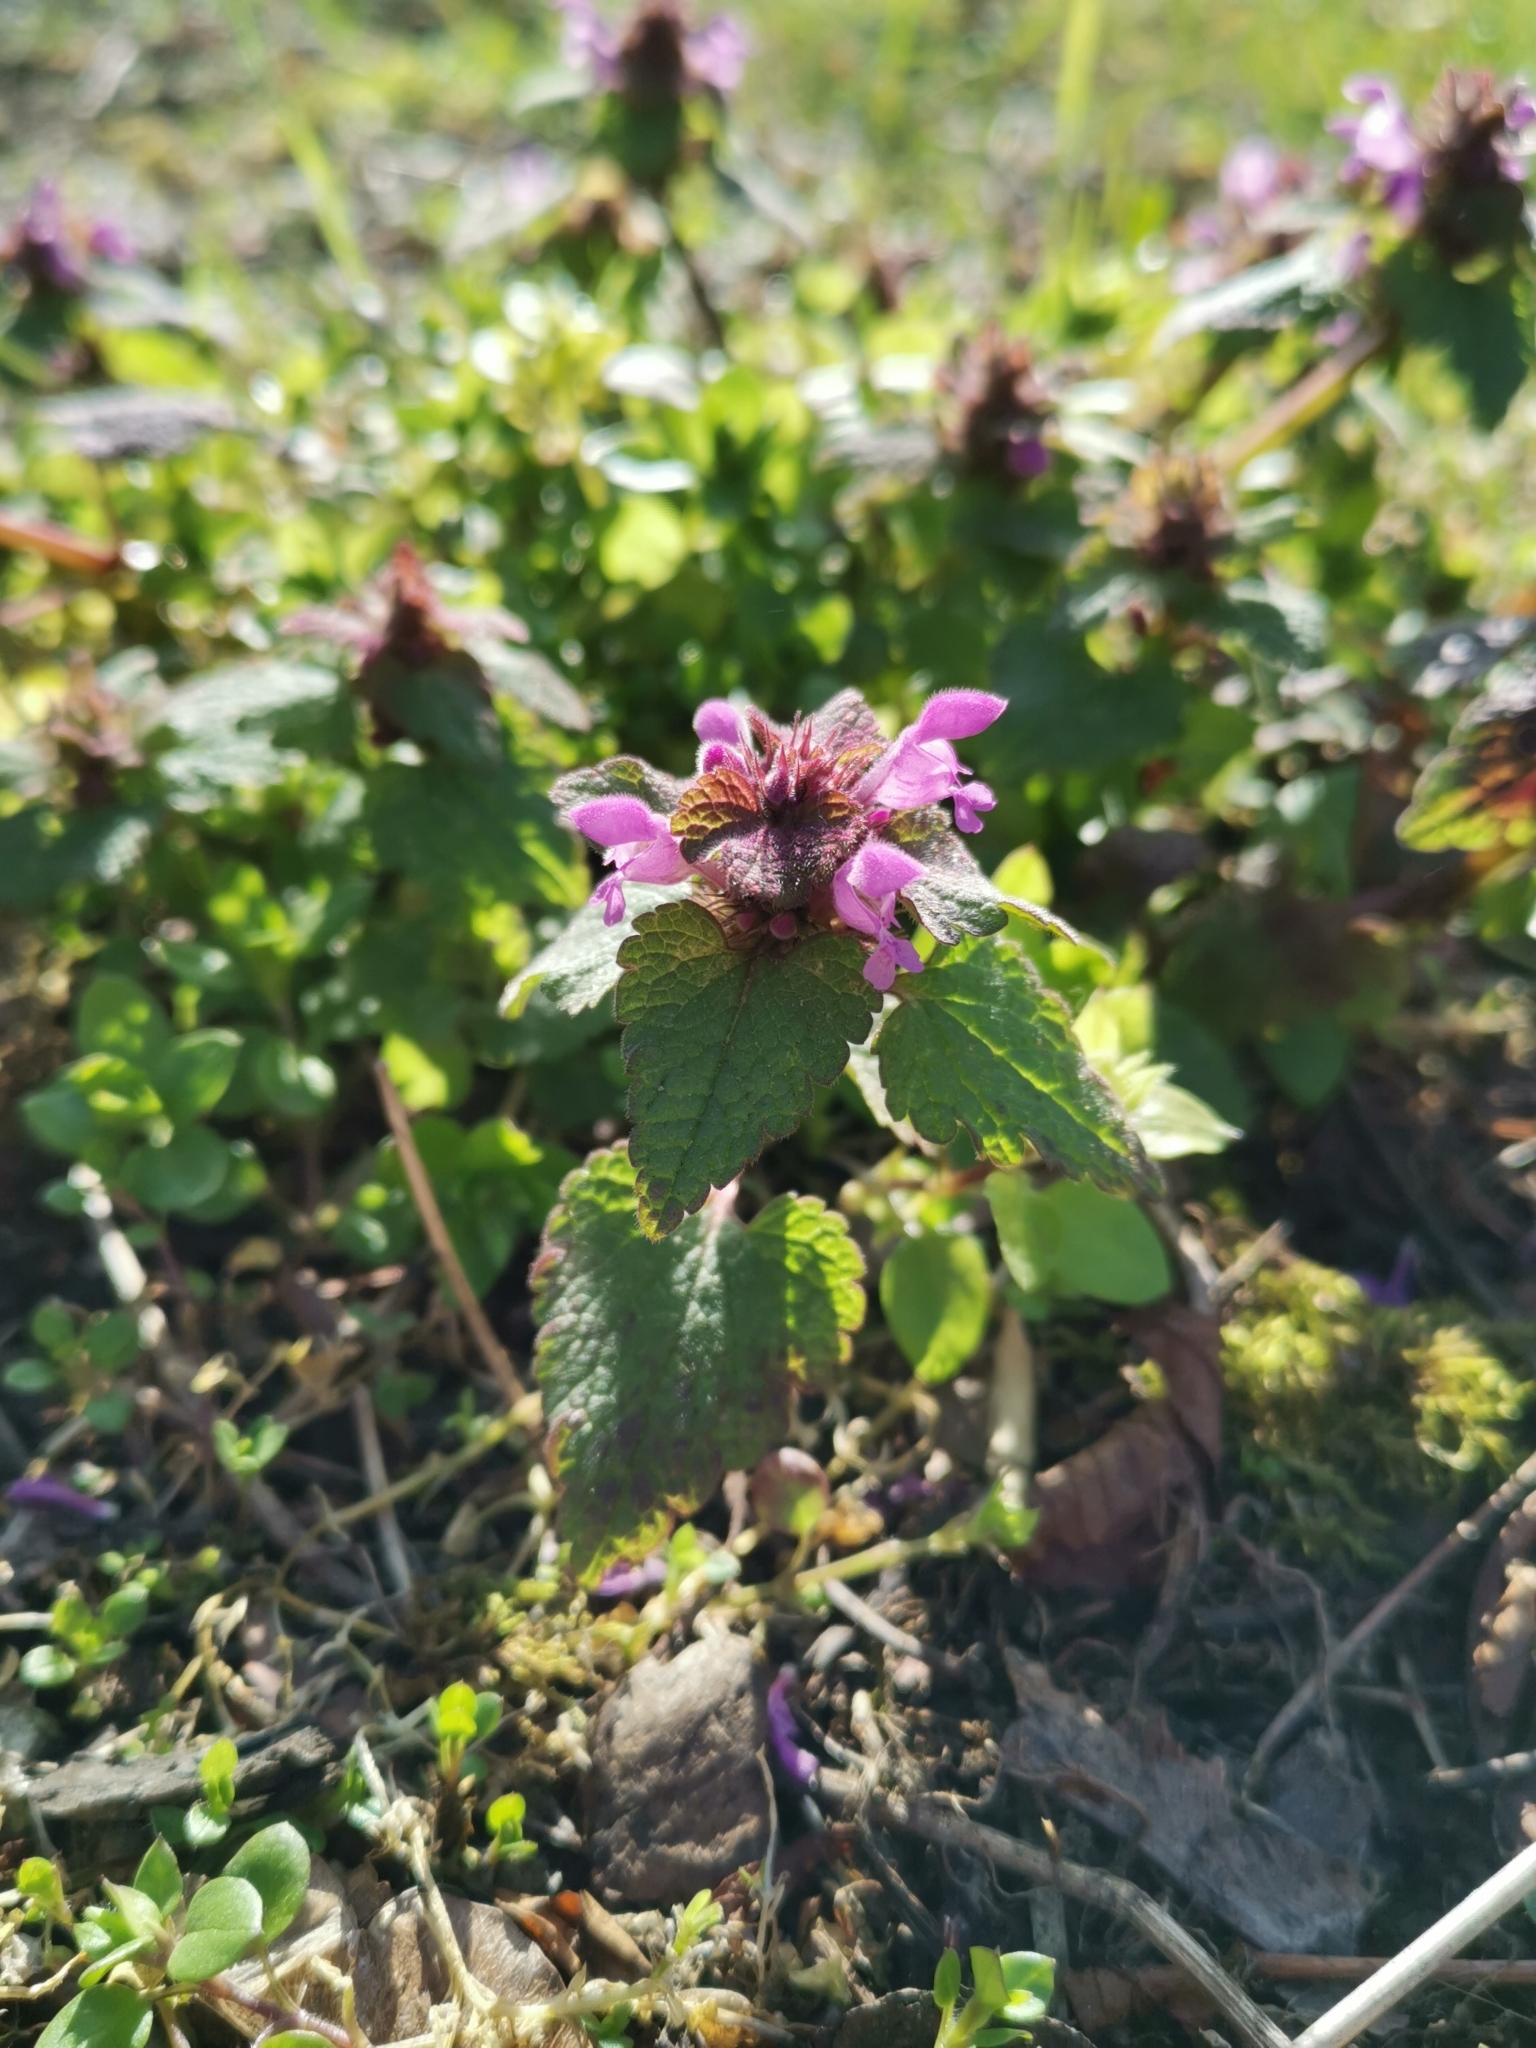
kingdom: Plantae
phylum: Tracheophyta
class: Magnoliopsida
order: Lamiales
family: Lamiaceae
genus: Lamium
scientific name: Lamium purpureum
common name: Red dead-nettle
